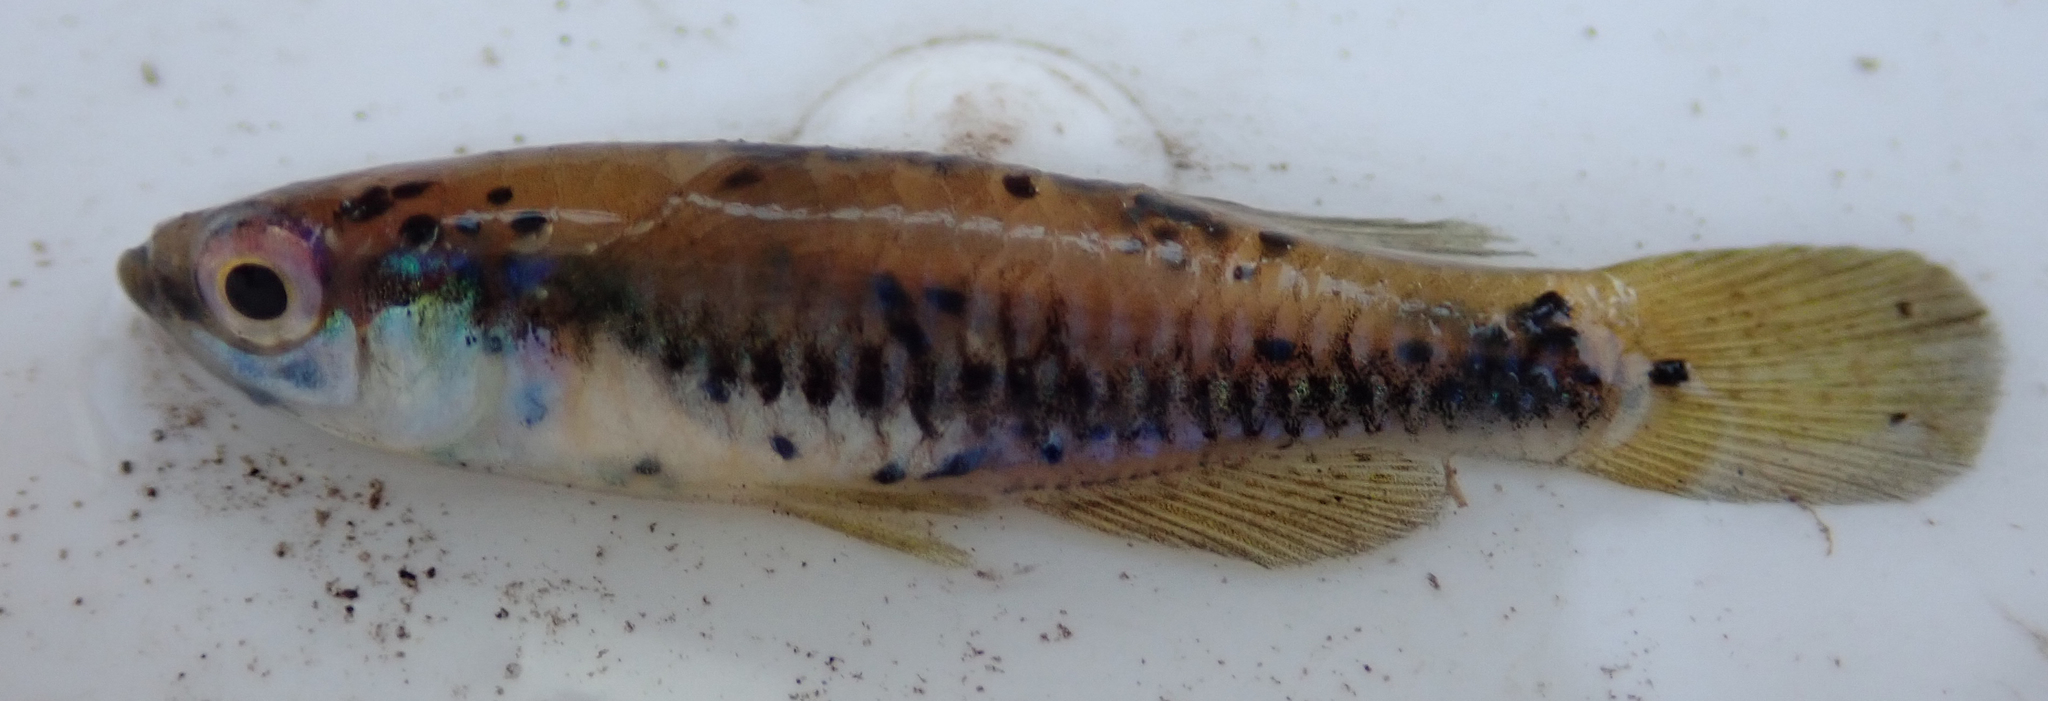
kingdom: Animalia
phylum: Chordata
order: Cyprinodontiformes
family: Poeciliidae
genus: Lacustricola
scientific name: Lacustricola katangae
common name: Striped topminnow
